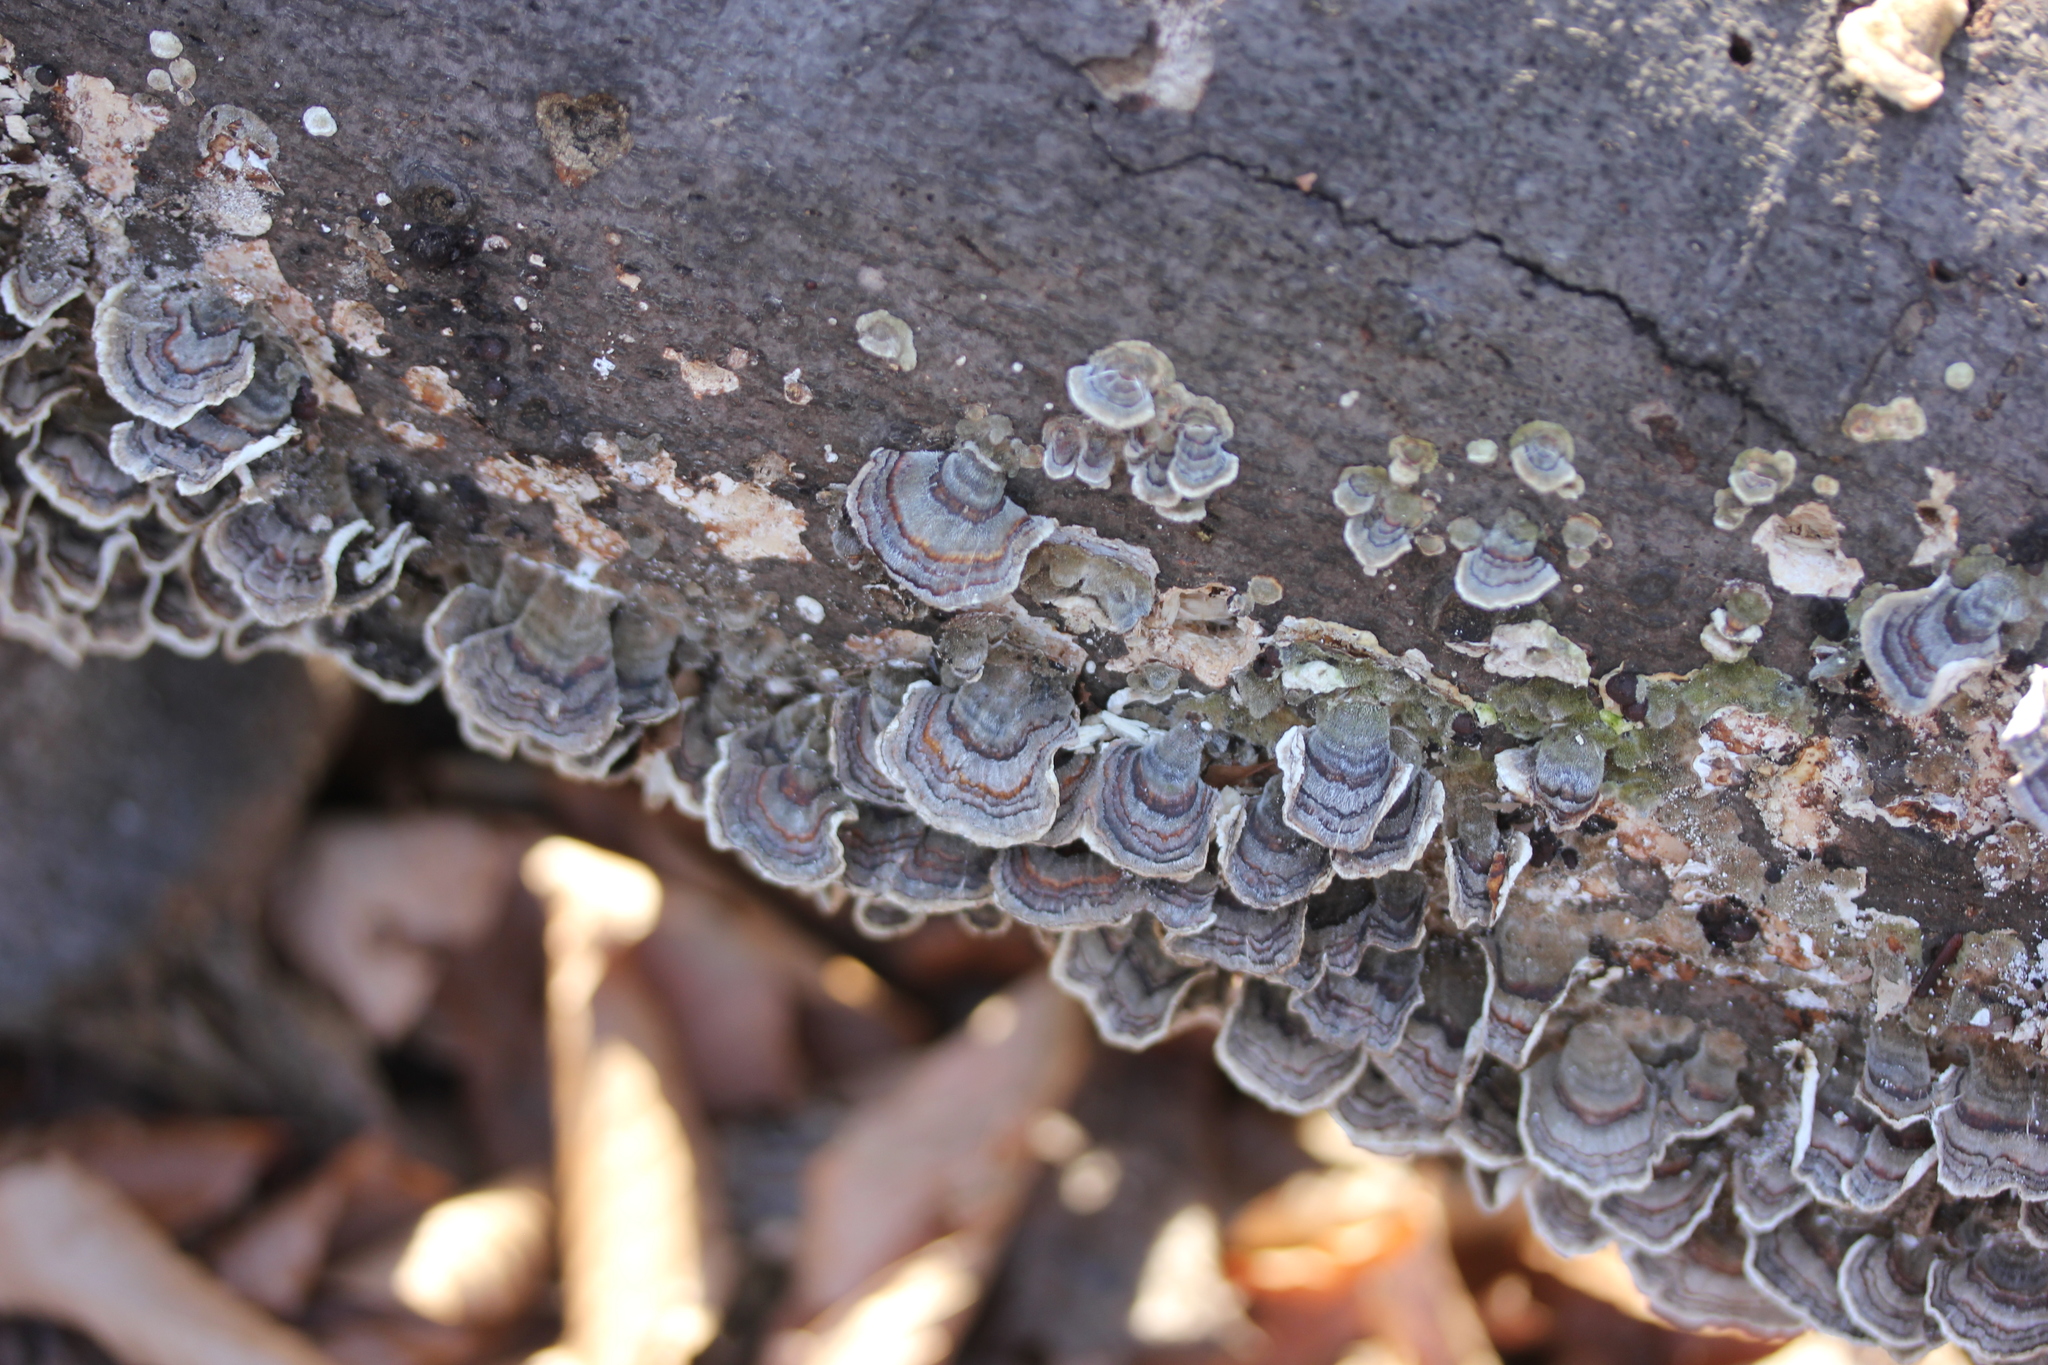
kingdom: Fungi
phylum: Basidiomycota
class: Agaricomycetes
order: Polyporales
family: Polyporaceae
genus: Trametes
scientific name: Trametes versicolor
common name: Turkeytail
